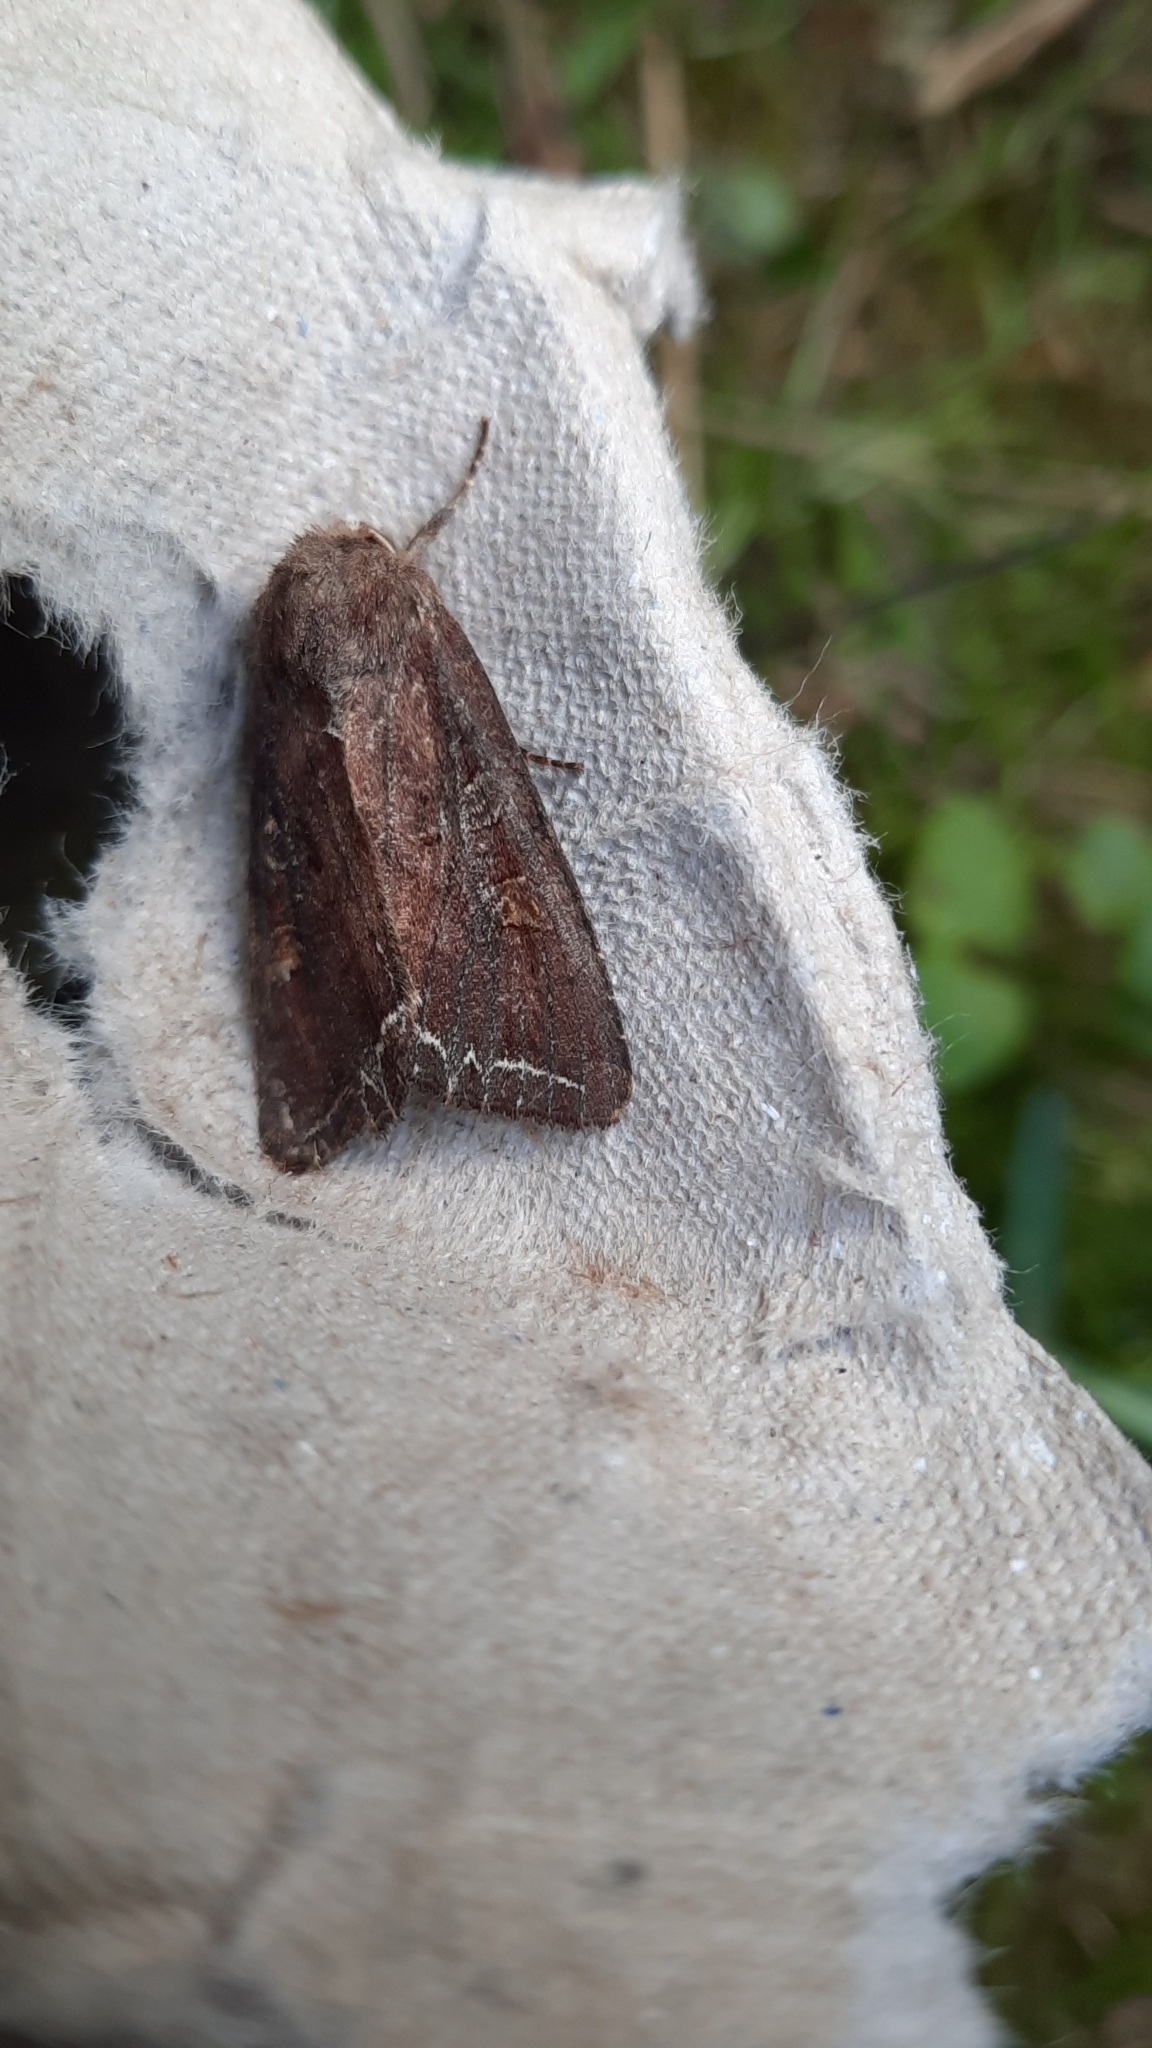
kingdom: Animalia
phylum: Arthropoda
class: Insecta
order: Lepidoptera
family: Noctuidae
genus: Lacanobia
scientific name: Lacanobia oleracea
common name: Bright-line brown-eye
